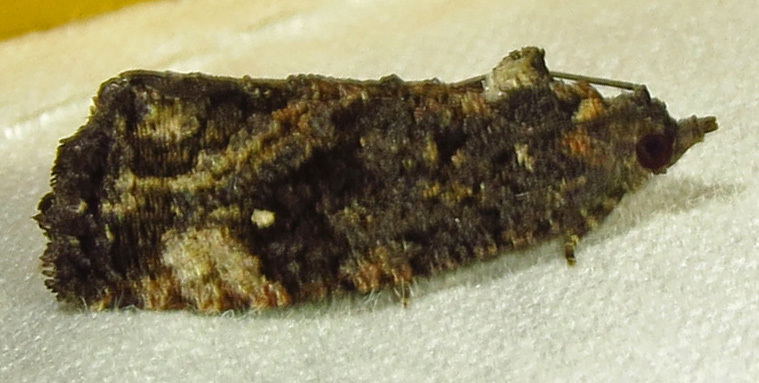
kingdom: Animalia
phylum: Arthropoda
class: Insecta
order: Lepidoptera
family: Tortricidae
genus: Gymnandrosoma
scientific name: Gymnandrosoma punctidiscanum
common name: Dotted ecdytolopha moth
